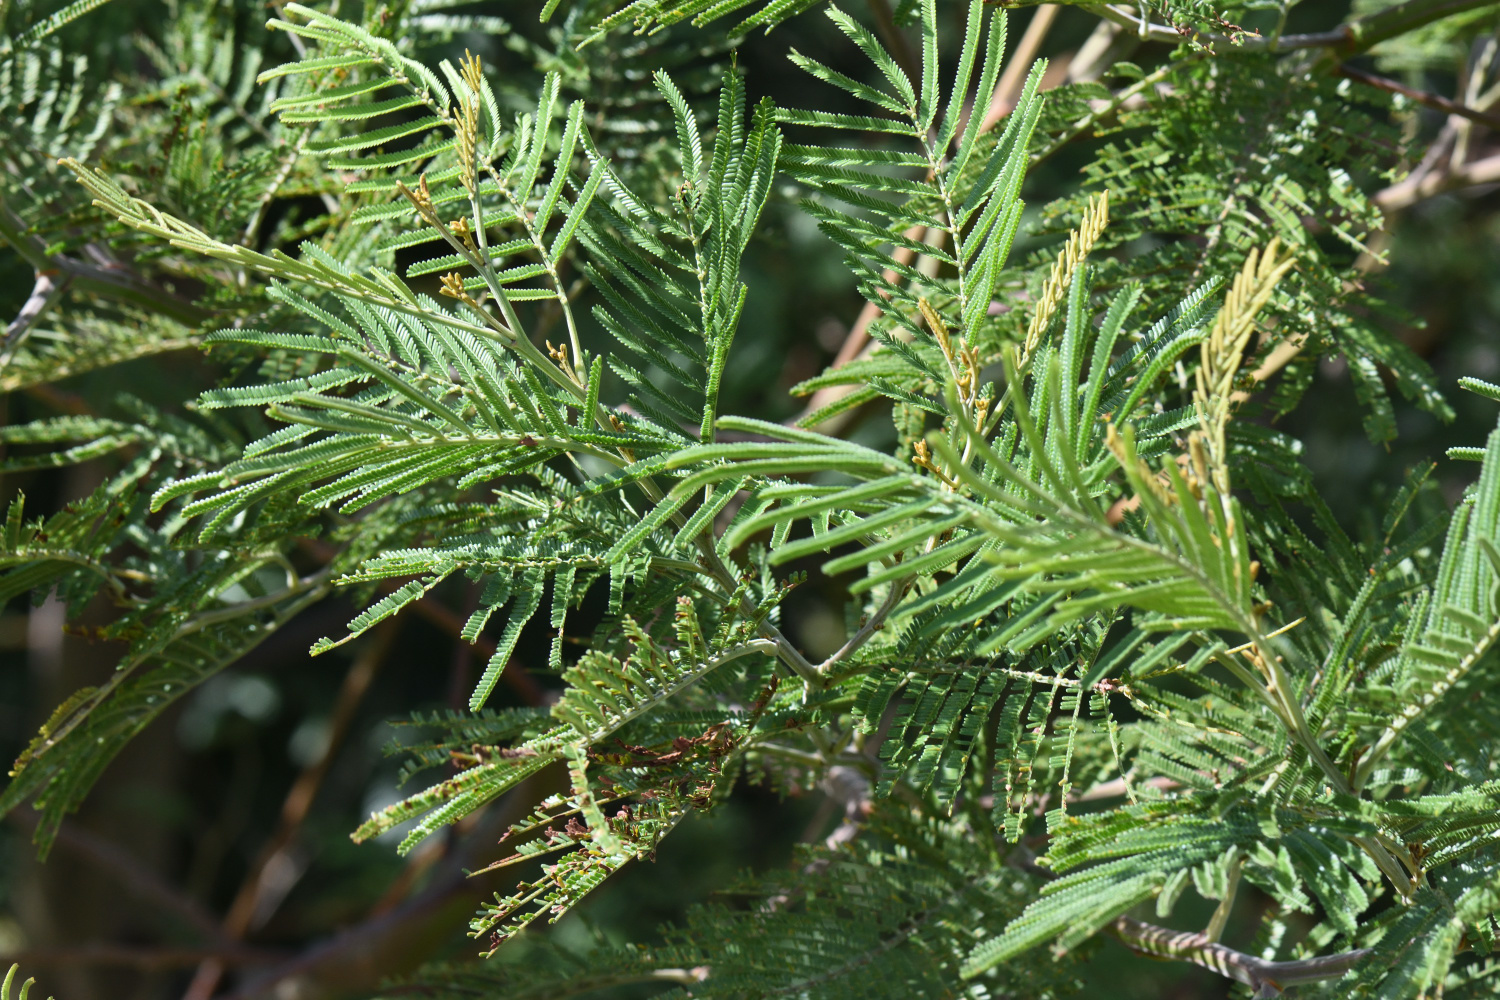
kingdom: Plantae
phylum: Tracheophyta
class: Magnoliopsida
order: Fabales
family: Fabaceae
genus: Acacia
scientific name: Acacia mearnsii
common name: Black wattle
